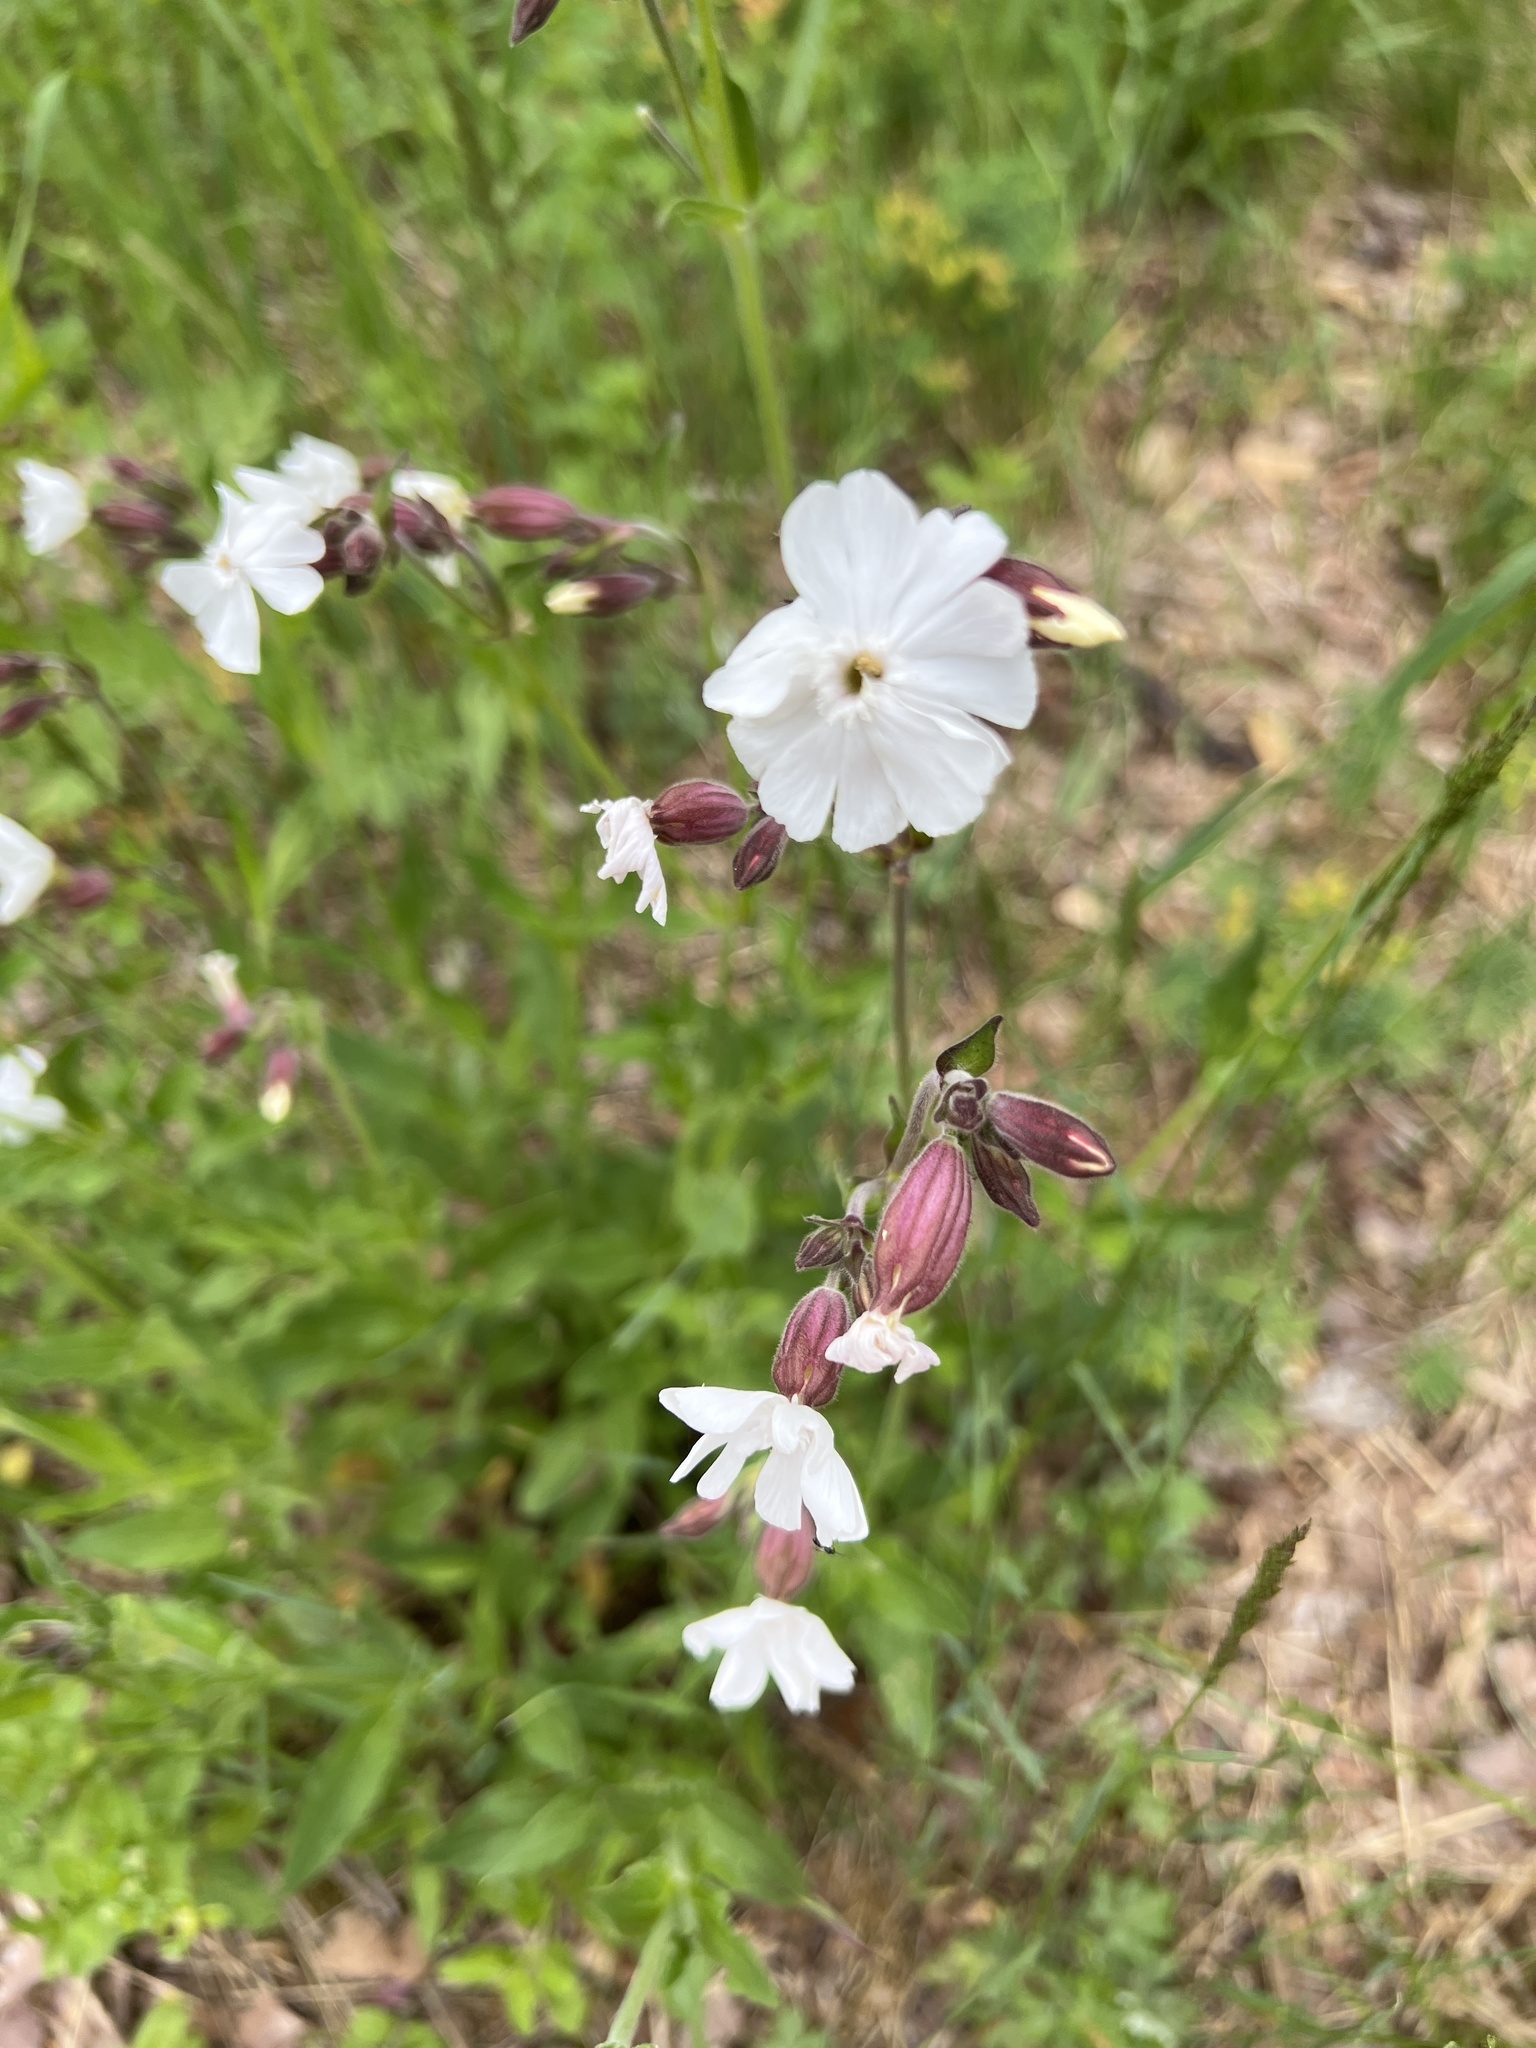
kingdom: Plantae
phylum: Tracheophyta
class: Magnoliopsida
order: Caryophyllales
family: Caryophyllaceae
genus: Silene
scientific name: Silene latifolia
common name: White campion
